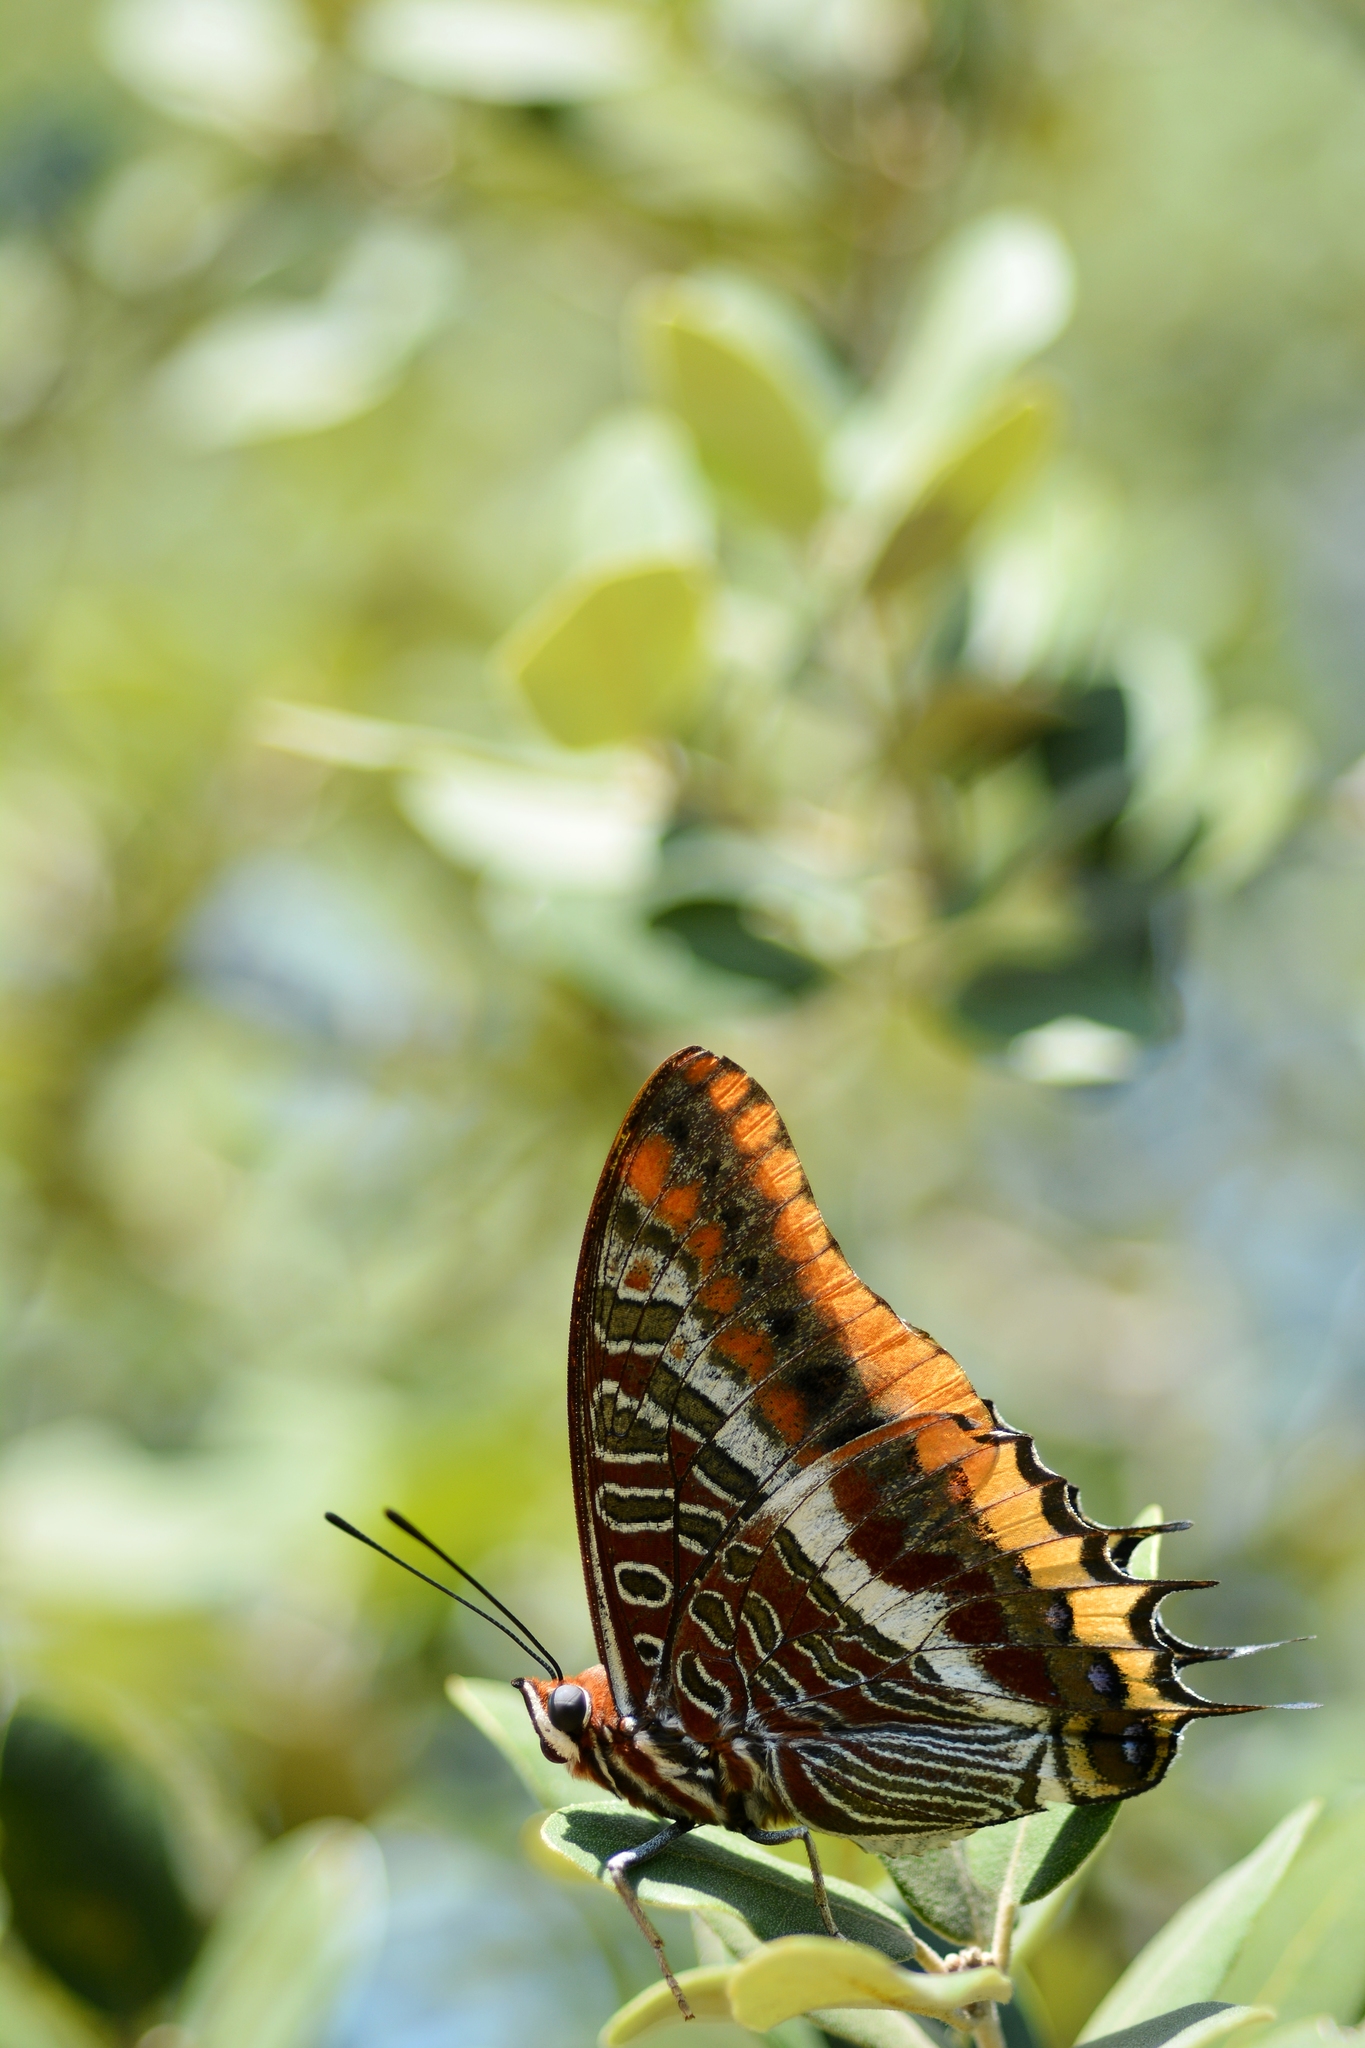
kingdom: Animalia
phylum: Arthropoda
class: Insecta
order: Lepidoptera
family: Nymphalidae
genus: Charaxes
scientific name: Charaxes jasius
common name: Two tailed pasha
